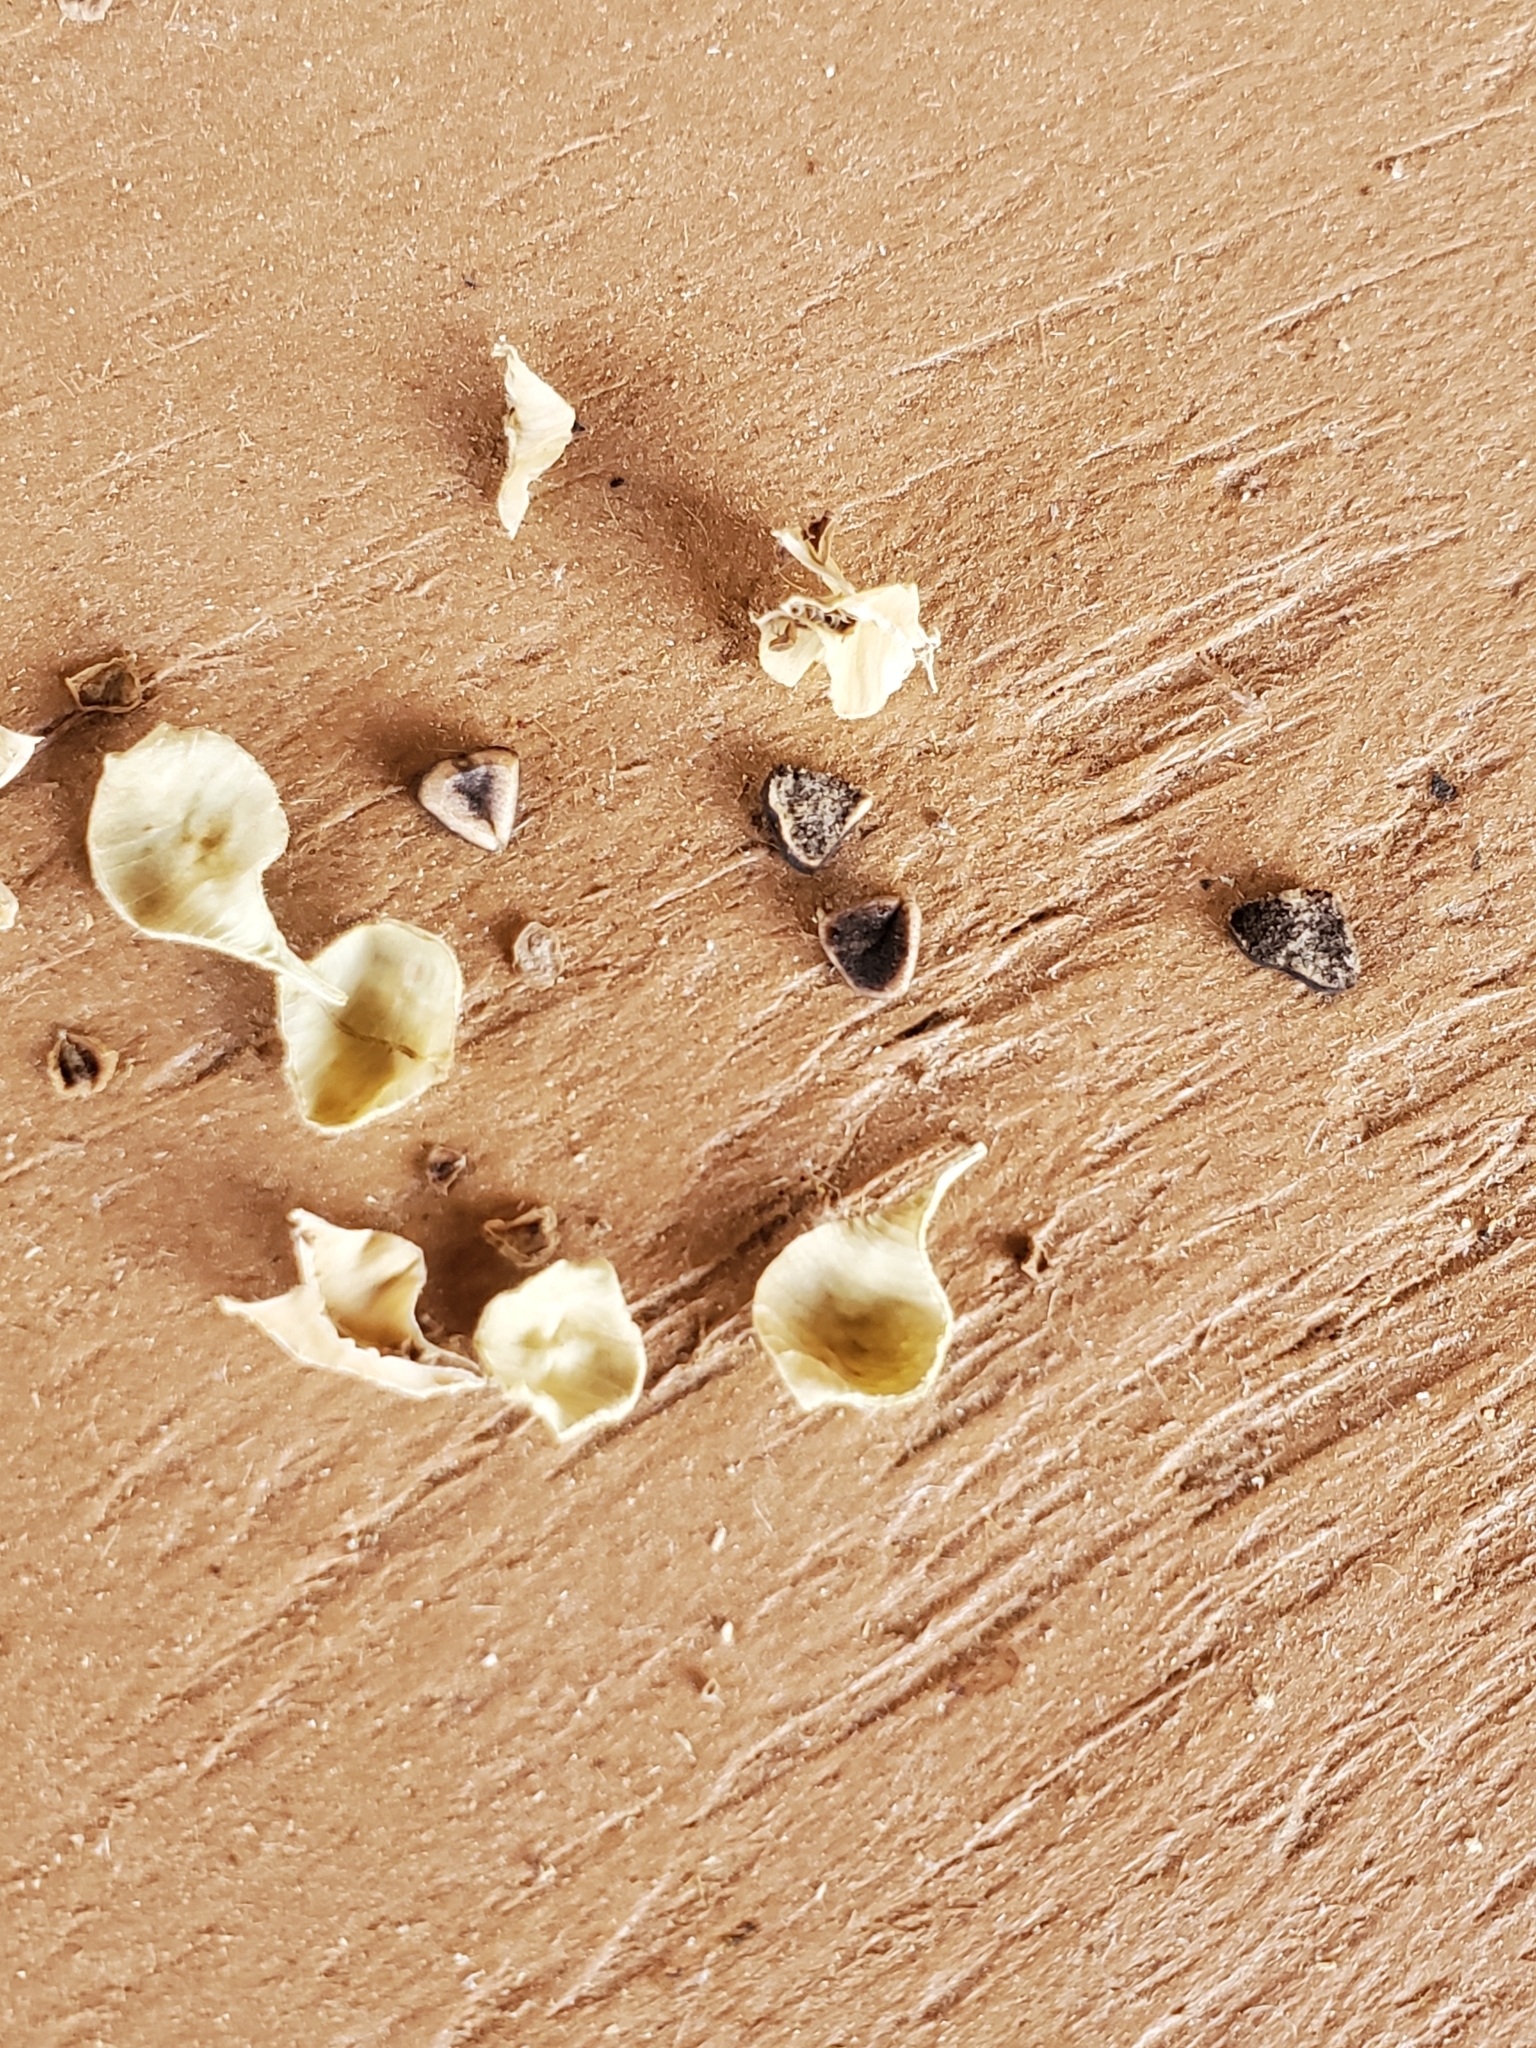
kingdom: Plantae
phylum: Tracheophyta
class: Magnoliopsida
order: Piperales
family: Aristolochiaceae
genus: Aristolochia
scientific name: Aristolochia coryi
